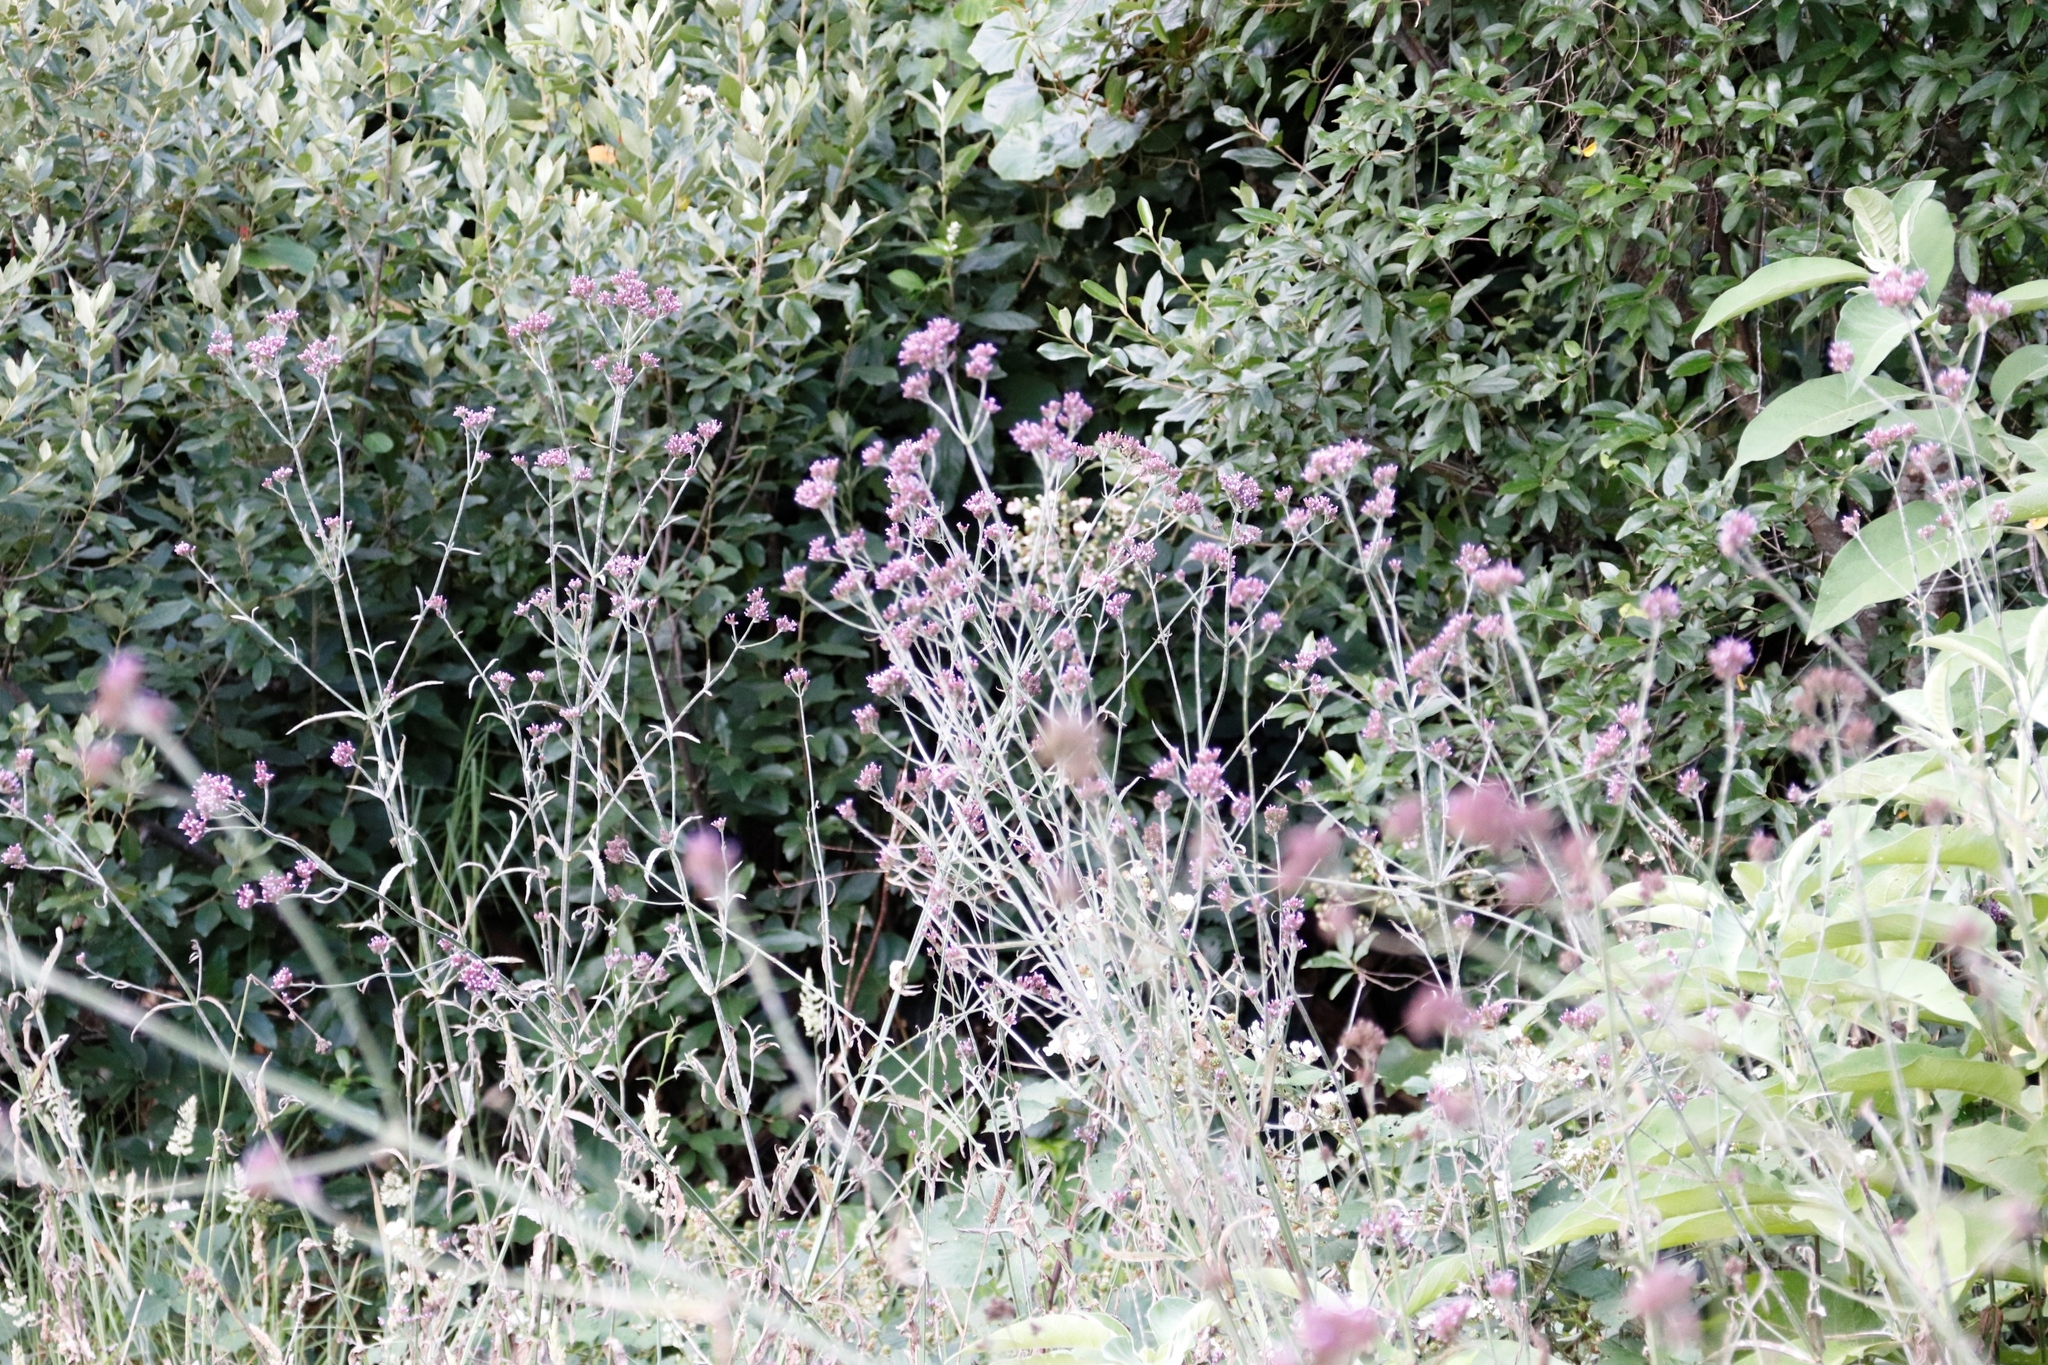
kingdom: Plantae
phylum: Tracheophyta
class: Magnoliopsida
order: Lamiales
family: Verbenaceae
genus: Verbena
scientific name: Verbena bonariensis
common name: Purpletop vervain
